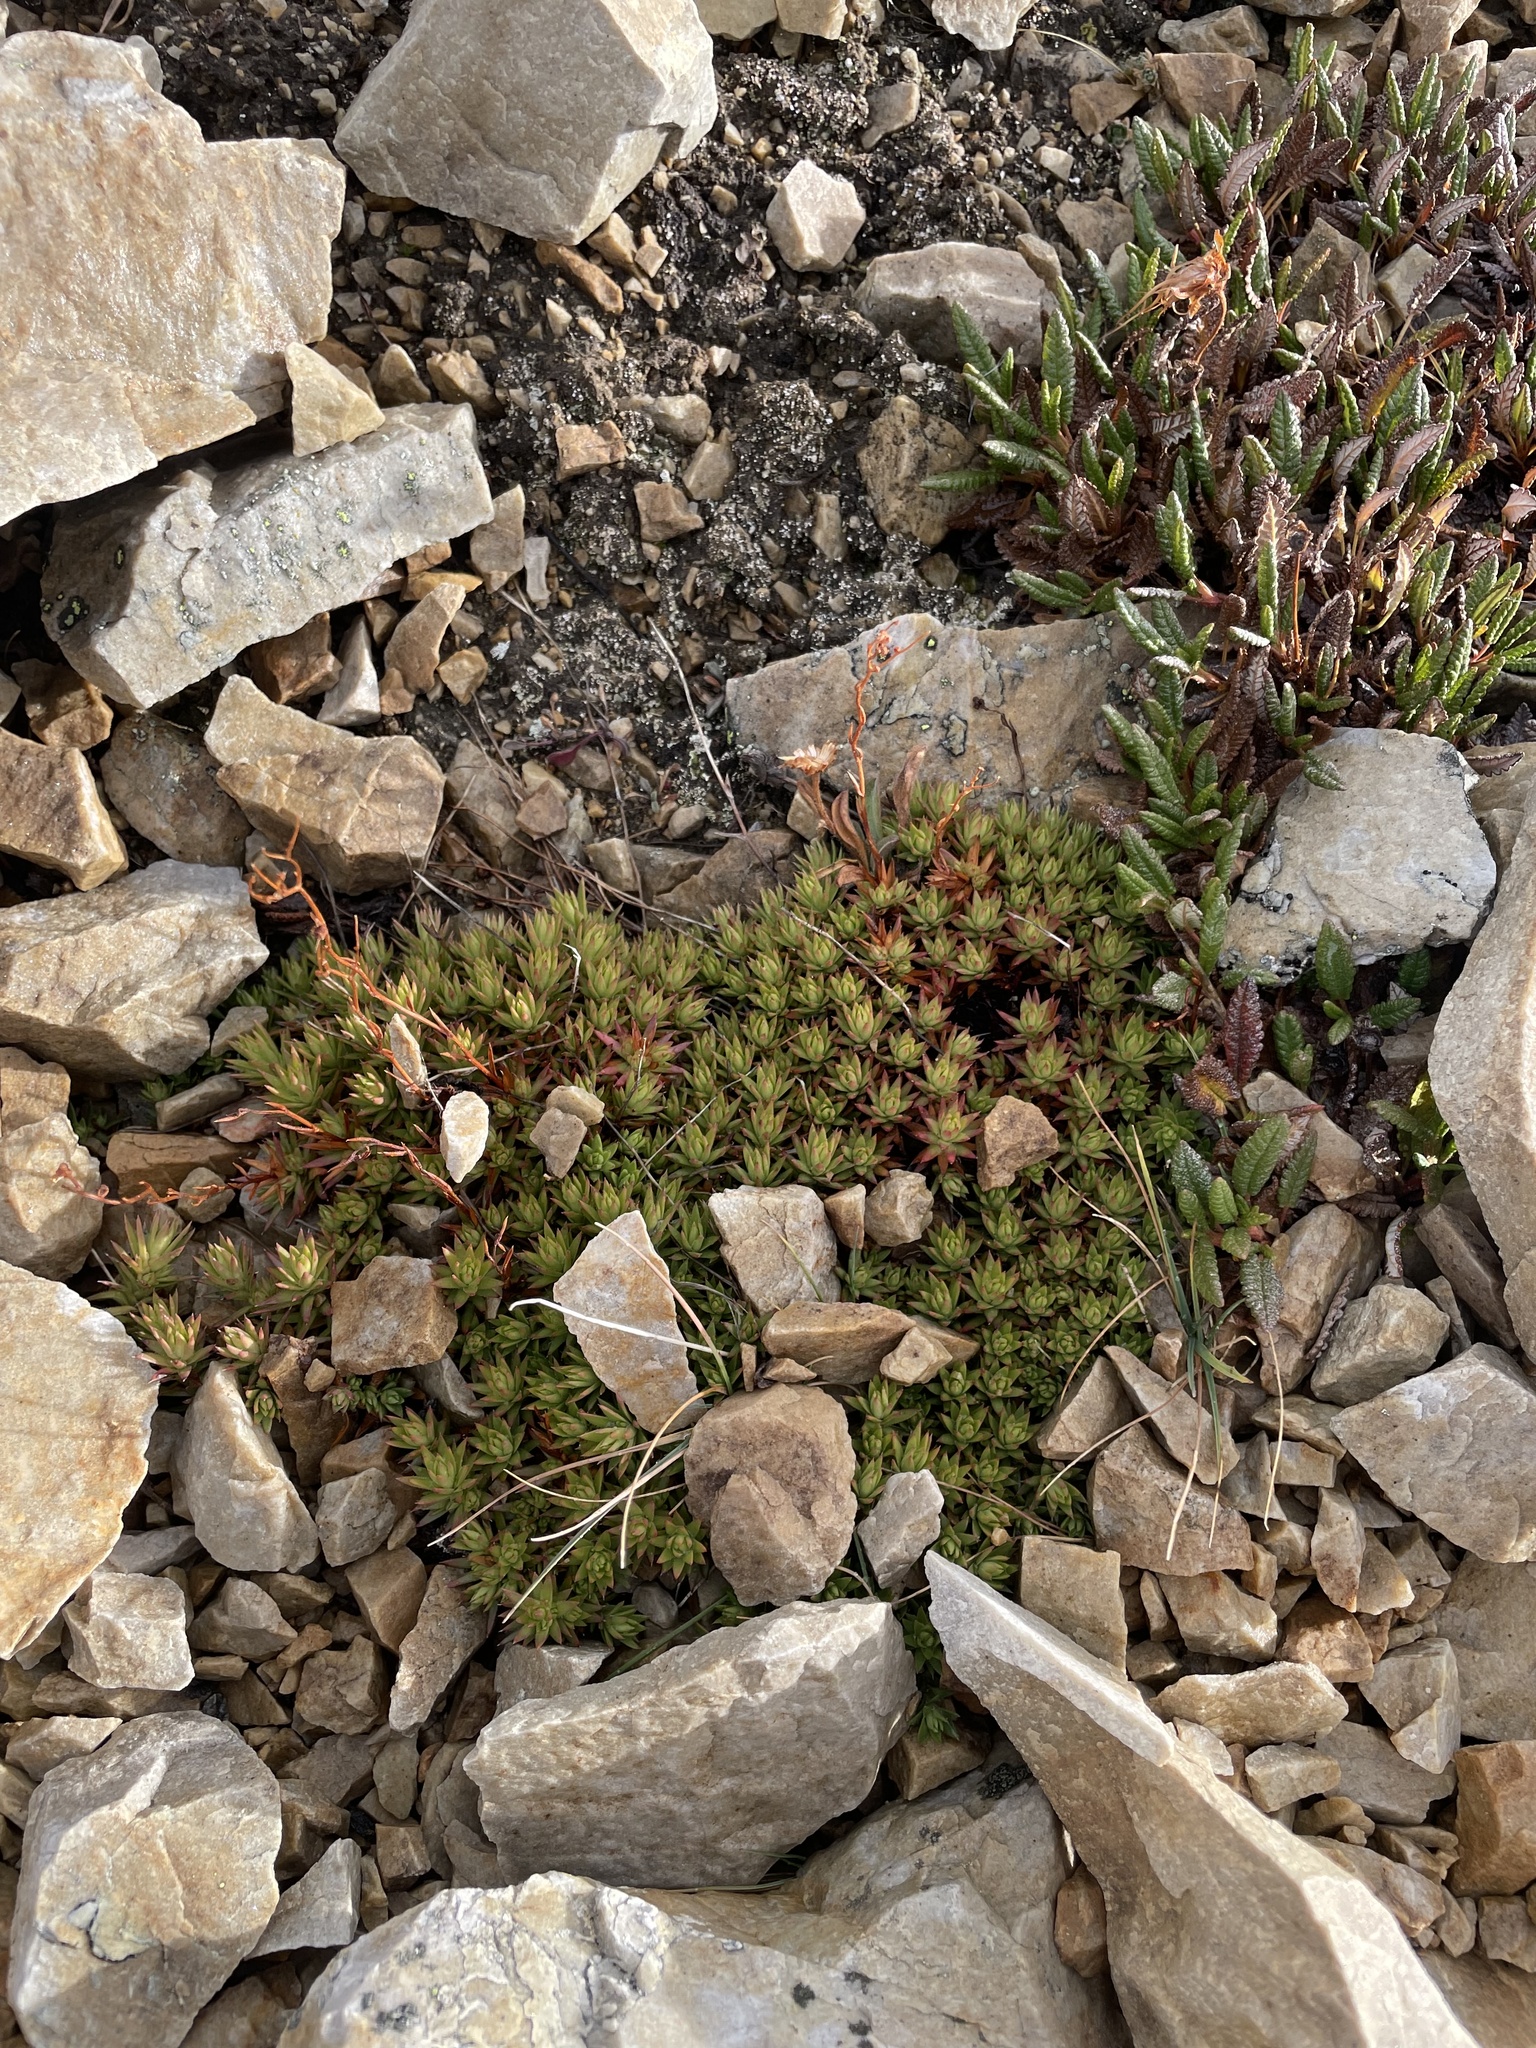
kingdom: Plantae
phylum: Tracheophyta
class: Magnoliopsida
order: Saxifragales
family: Saxifragaceae
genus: Saxifraga
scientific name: Saxifraga bronchialis
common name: Matted saxifrage
